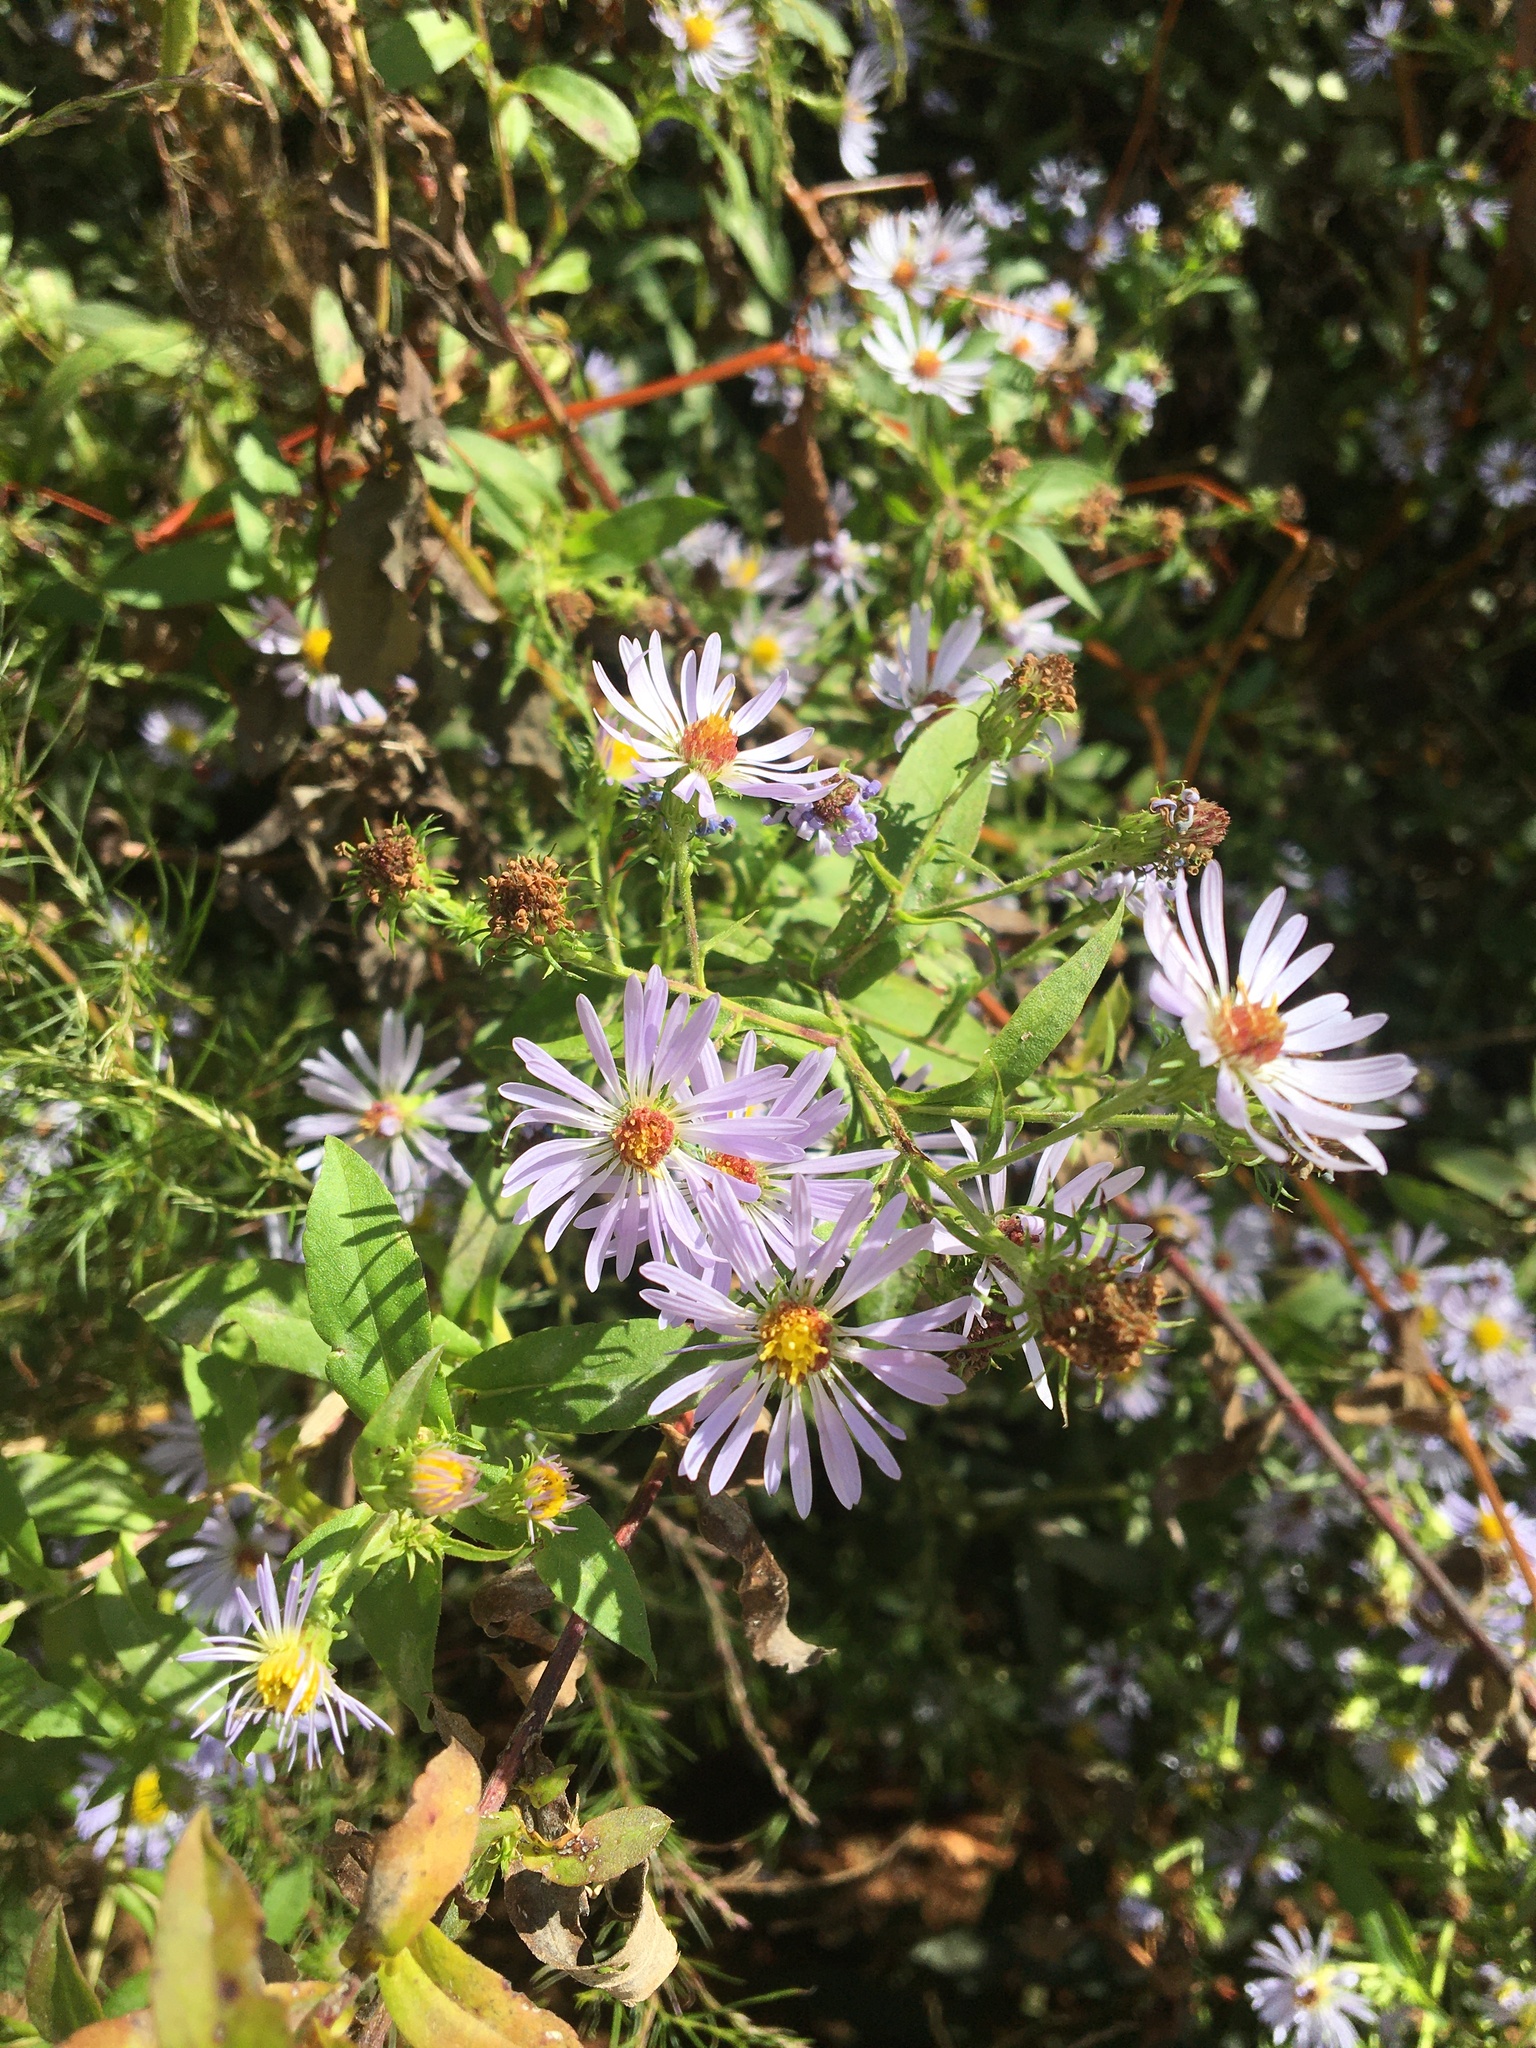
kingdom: Plantae
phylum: Tracheophyta
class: Magnoliopsida
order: Asterales
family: Asteraceae
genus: Symphyotrichum
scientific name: Symphyotrichum puniceum
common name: Bog aster
